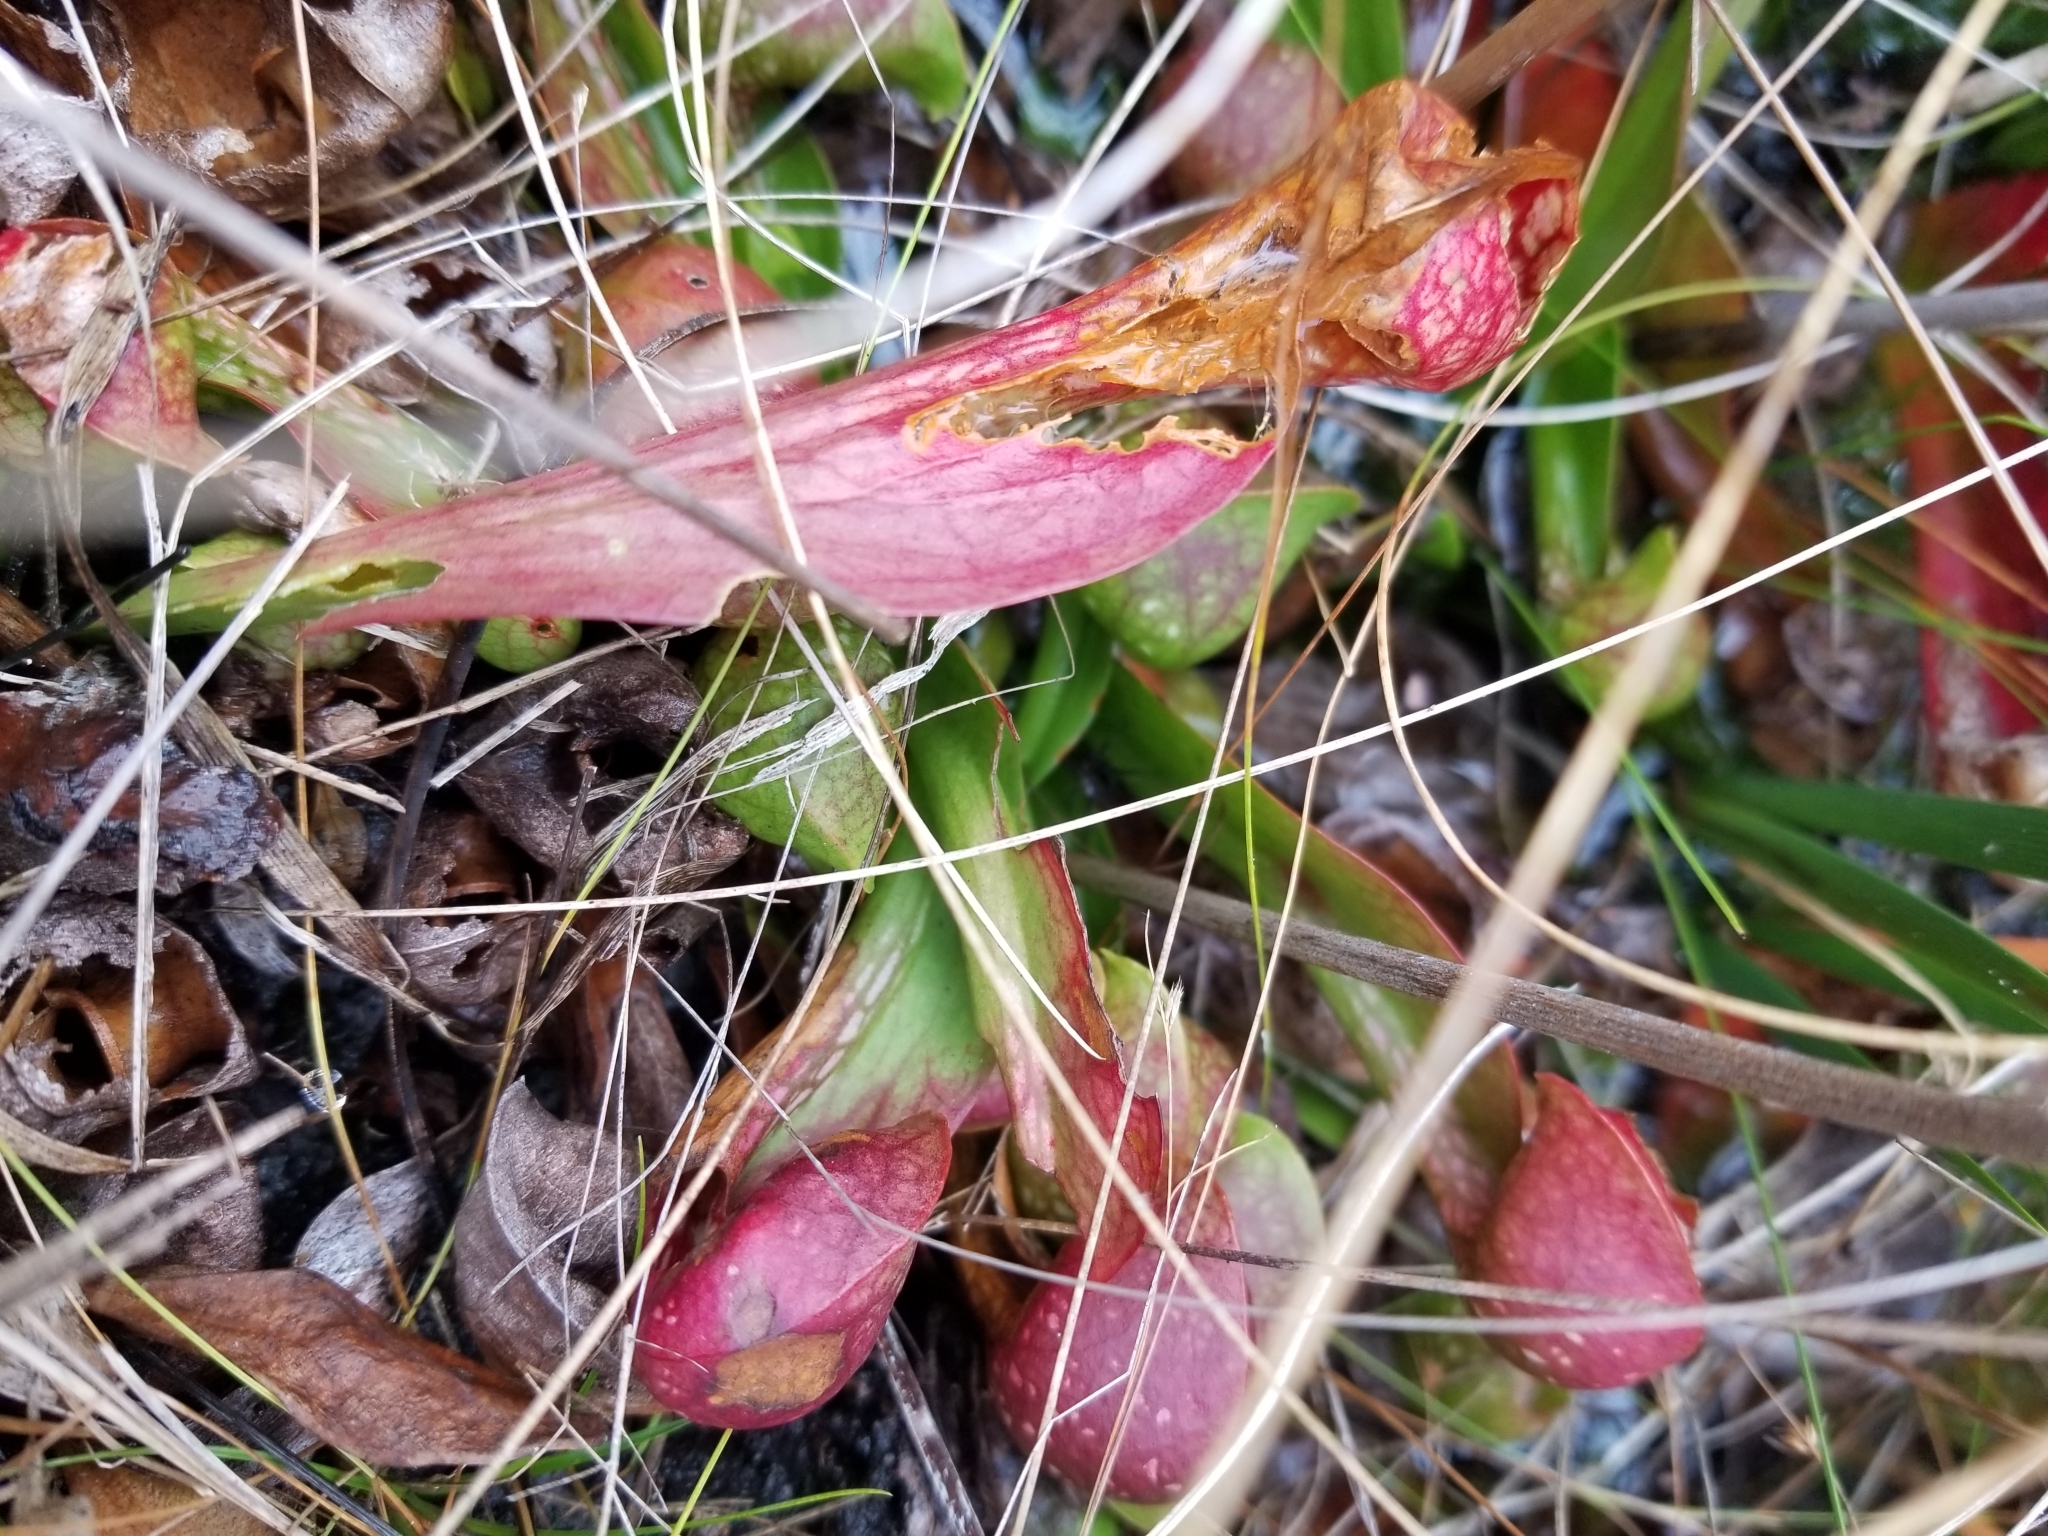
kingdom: Plantae
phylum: Tracheophyta
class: Magnoliopsida
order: Ericales
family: Sarraceniaceae
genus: Sarracenia
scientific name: Sarracenia psittacina
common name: Parrot pitcherplant
